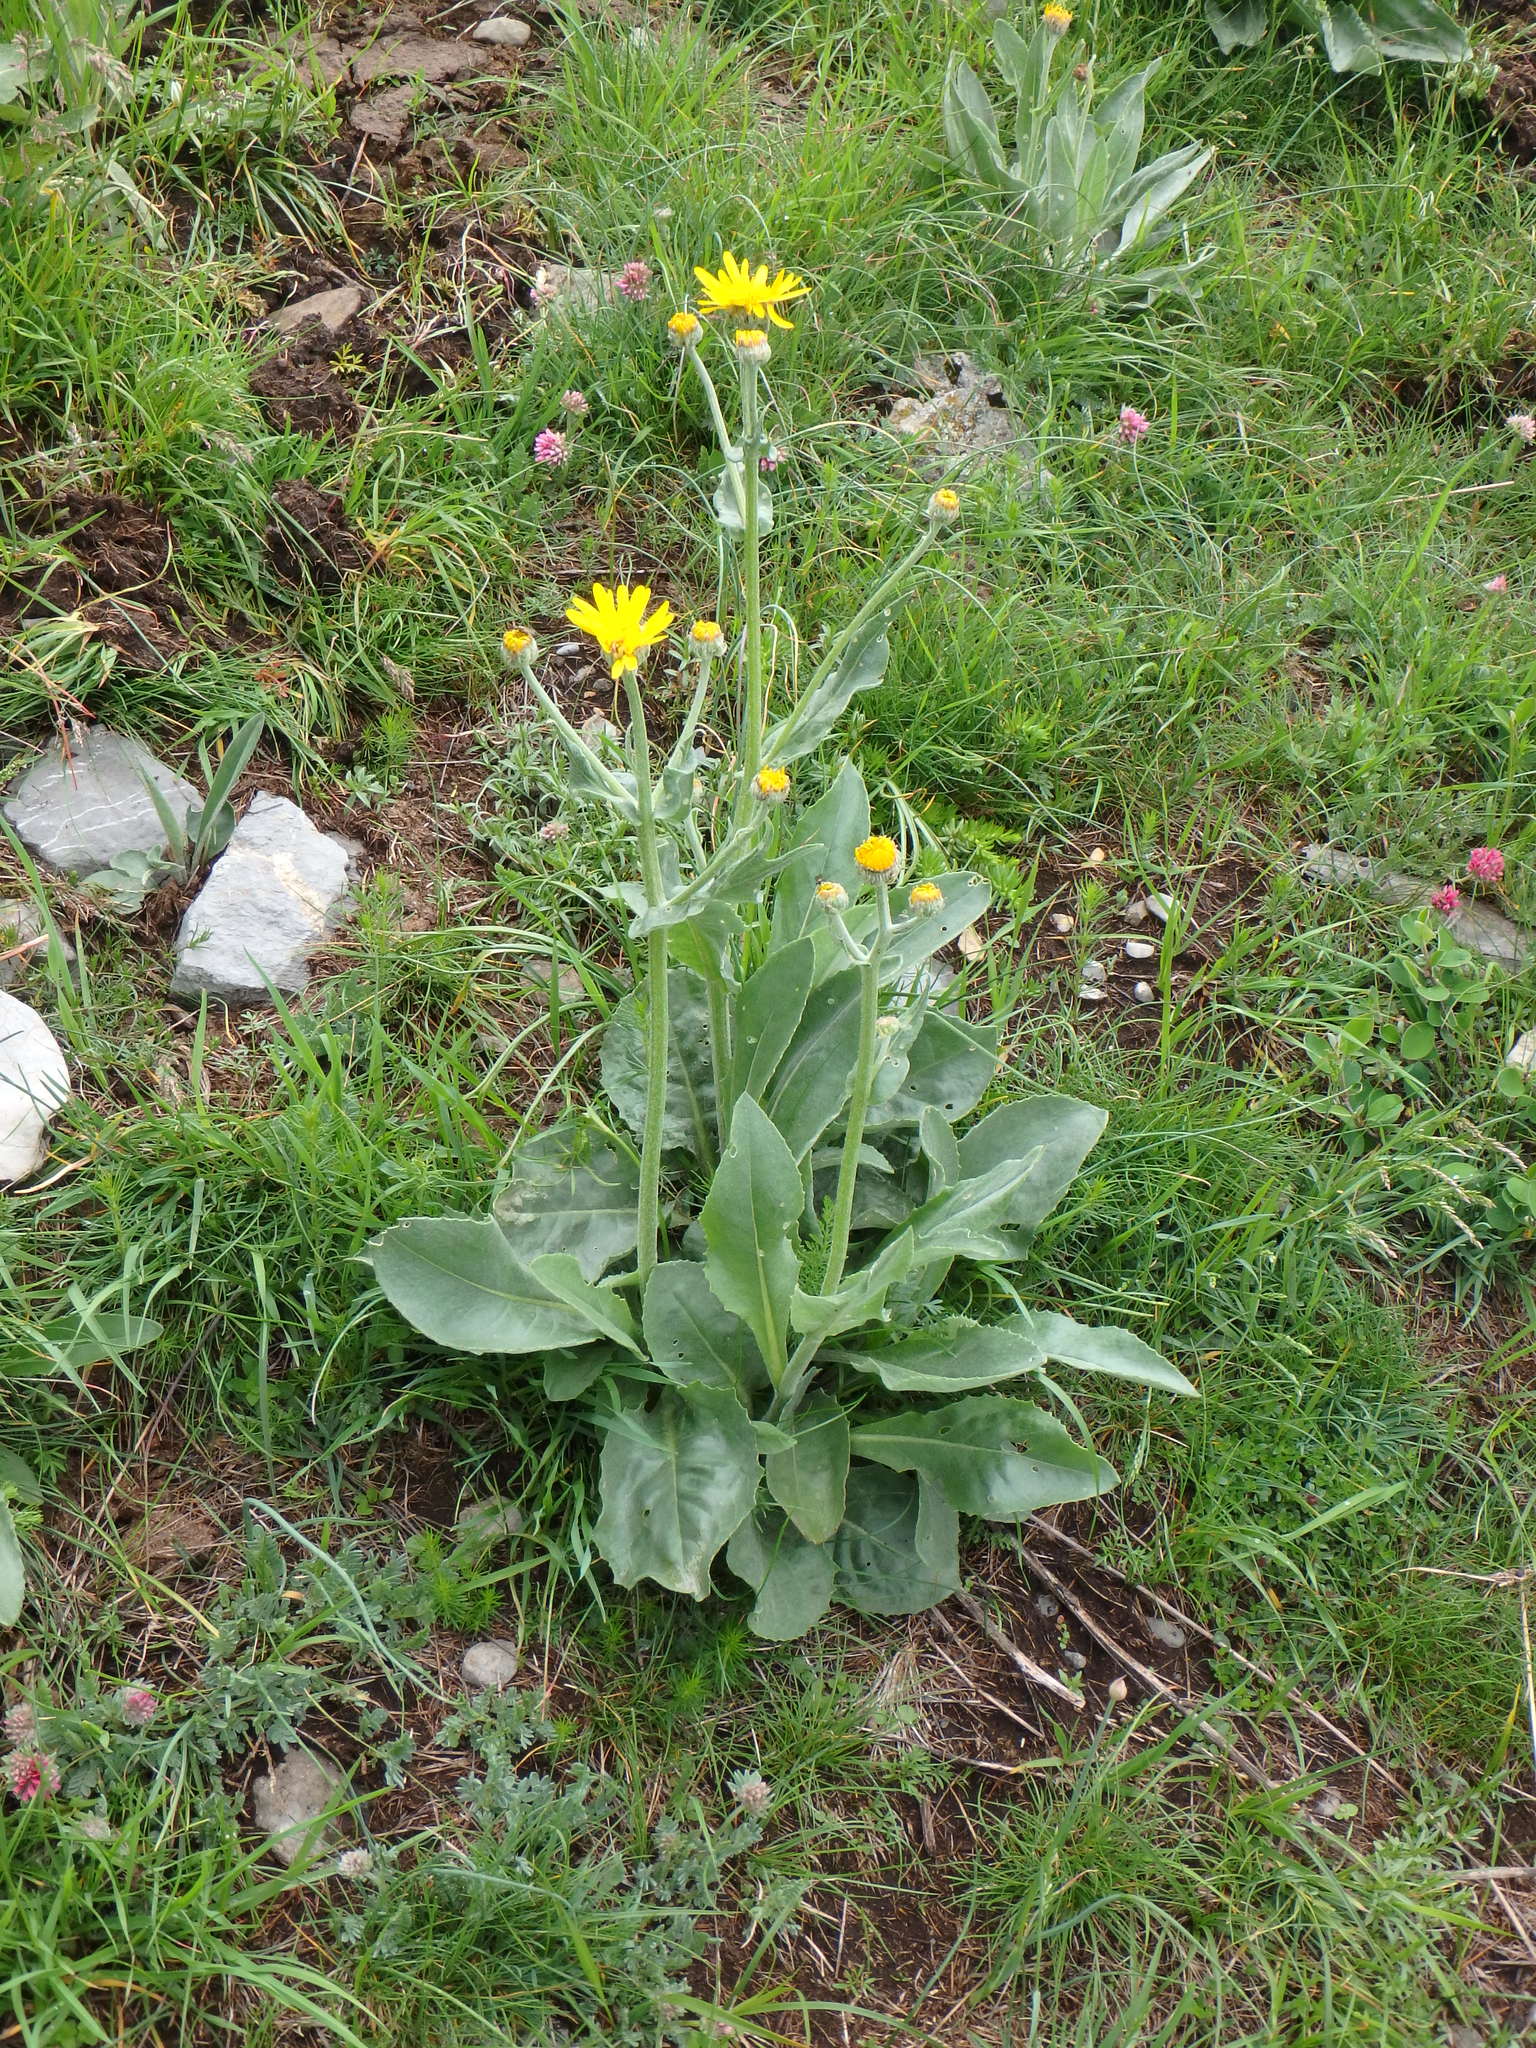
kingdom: Plantae
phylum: Tracheophyta
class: Magnoliopsida
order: Asterales
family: Asteraceae
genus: Senecio
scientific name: Senecio doronicum
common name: Chamois ragwort
